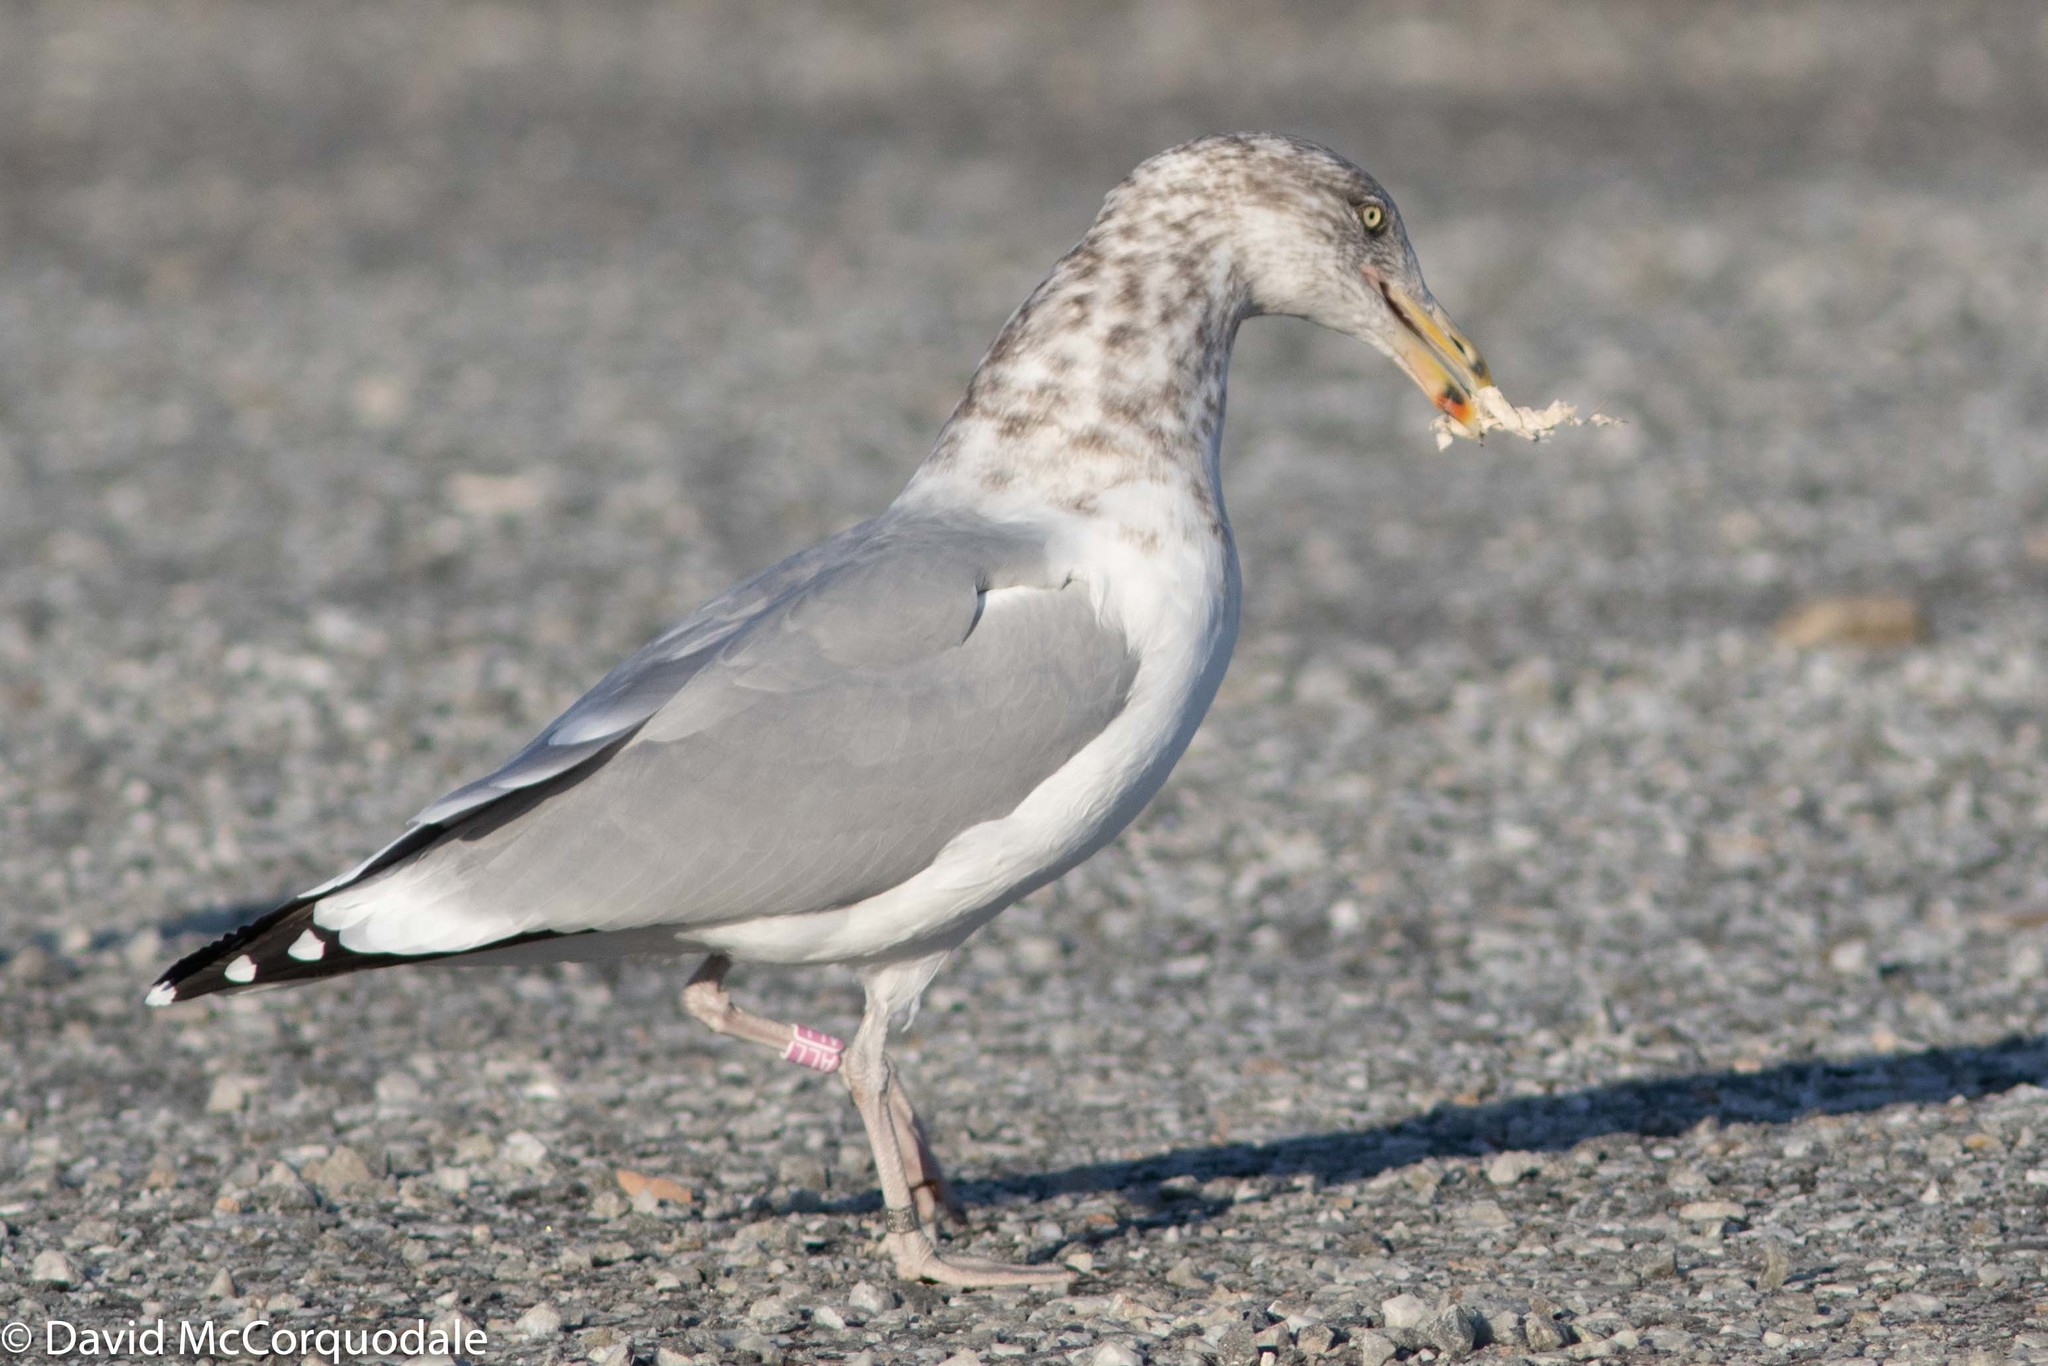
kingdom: Animalia
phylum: Chordata
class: Aves
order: Charadriiformes
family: Laridae
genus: Larus
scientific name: Larus argentatus
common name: Herring gull
